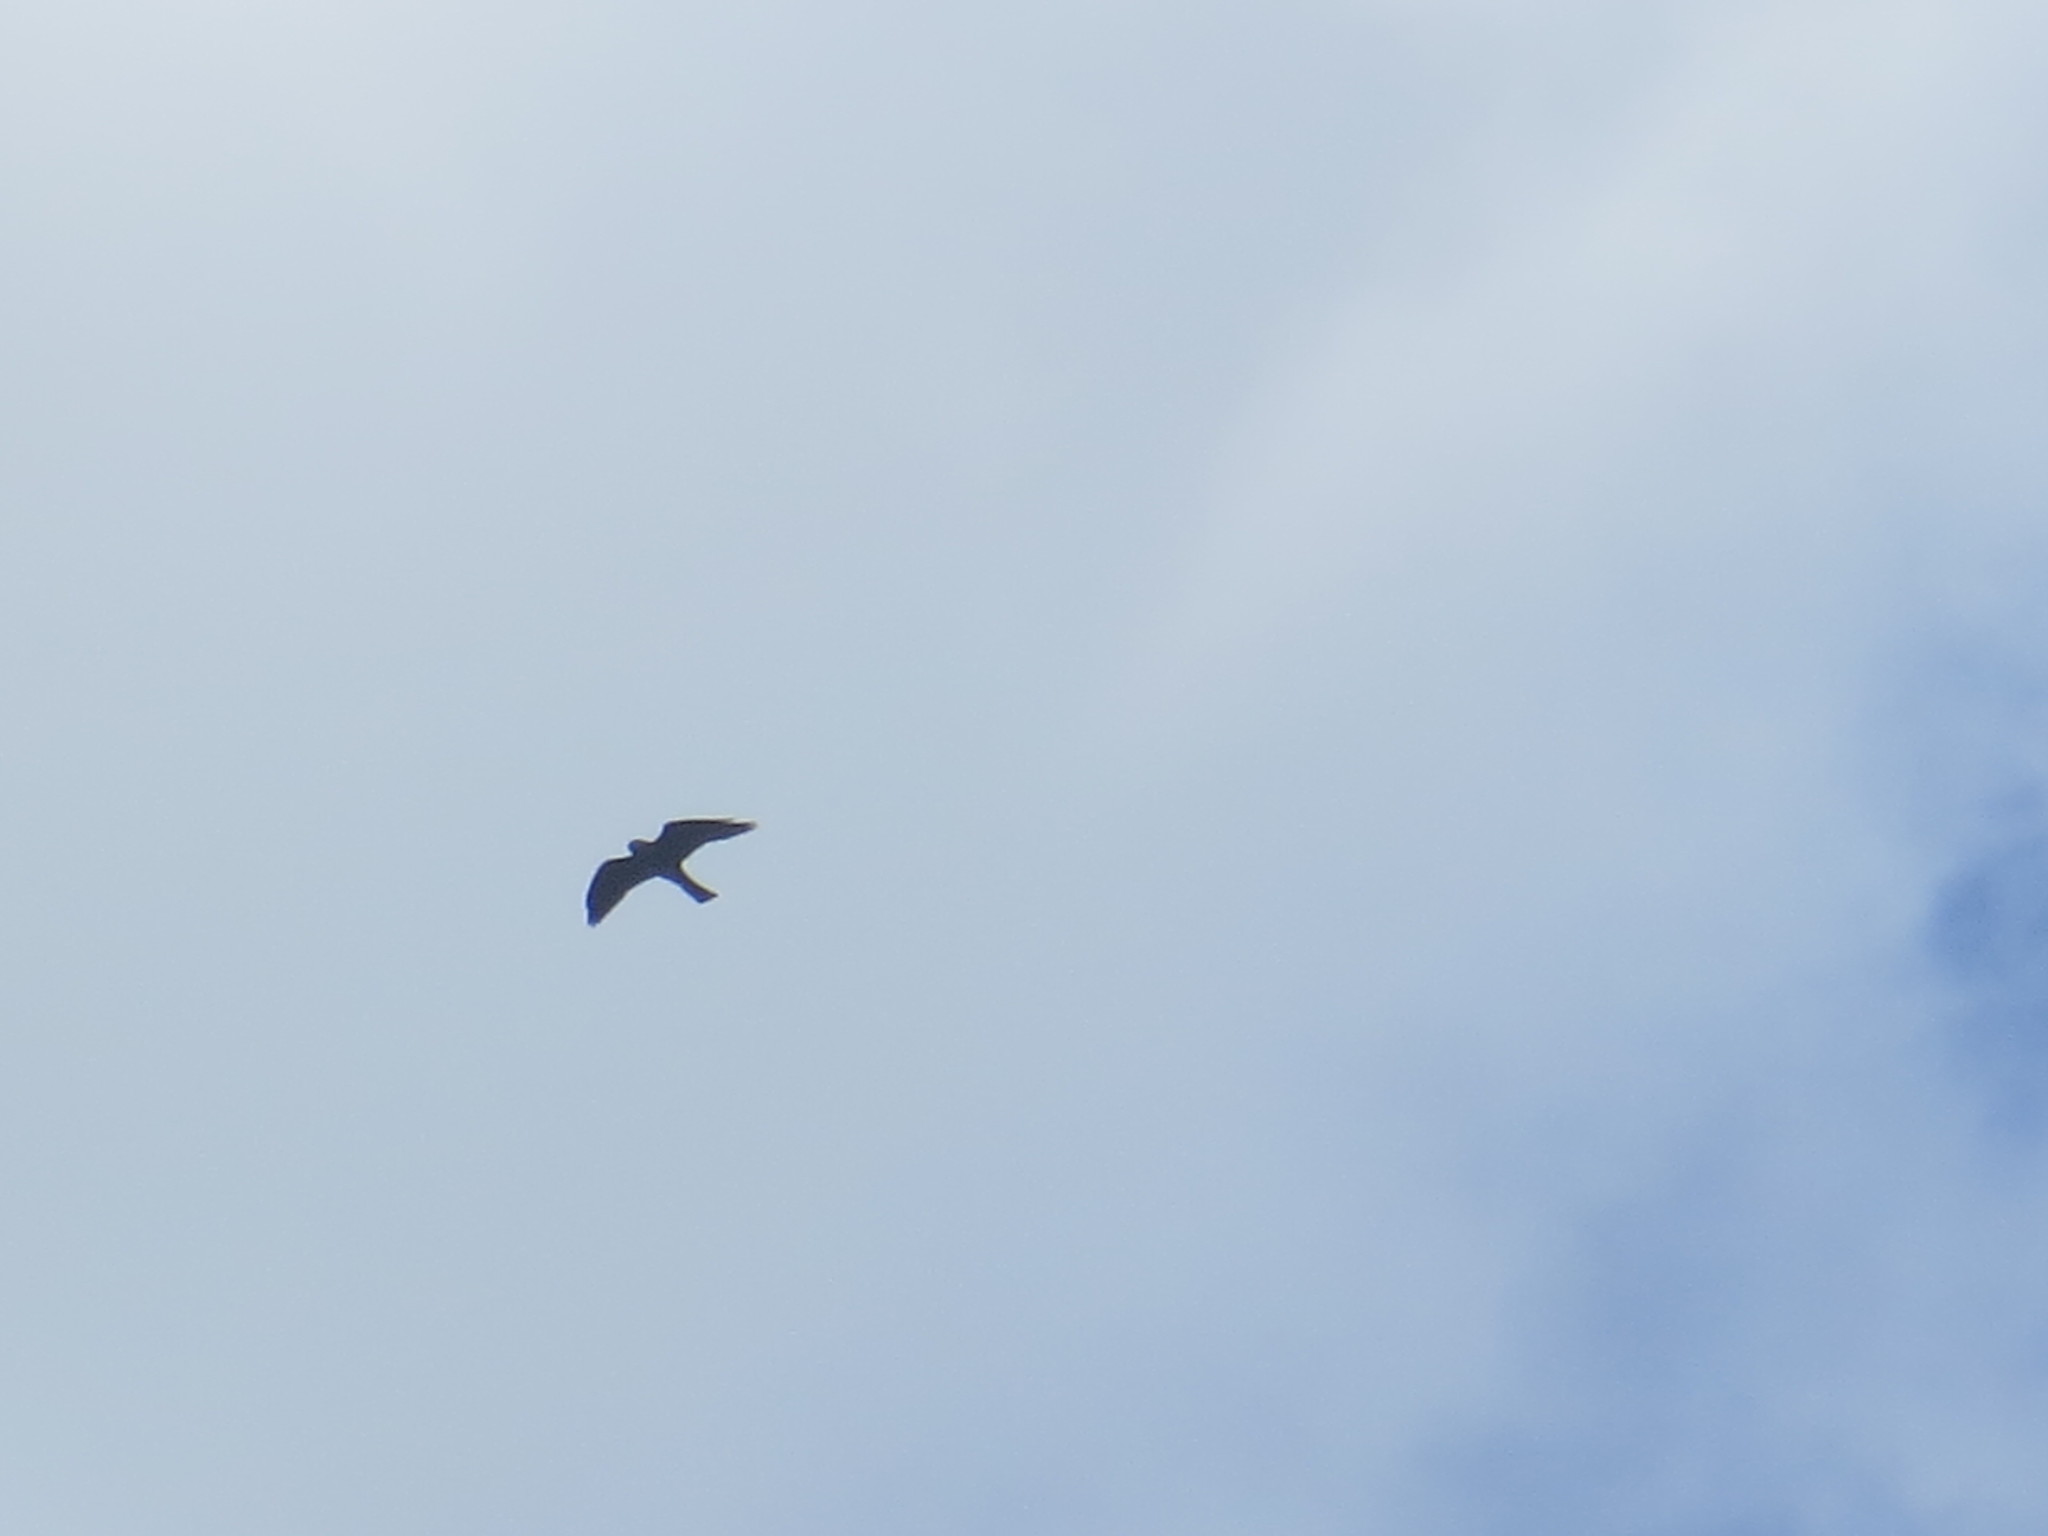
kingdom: Animalia
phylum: Chordata
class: Aves
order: Accipitriformes
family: Accipitridae
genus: Ictinia
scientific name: Ictinia mississippiensis
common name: Mississippi kite
